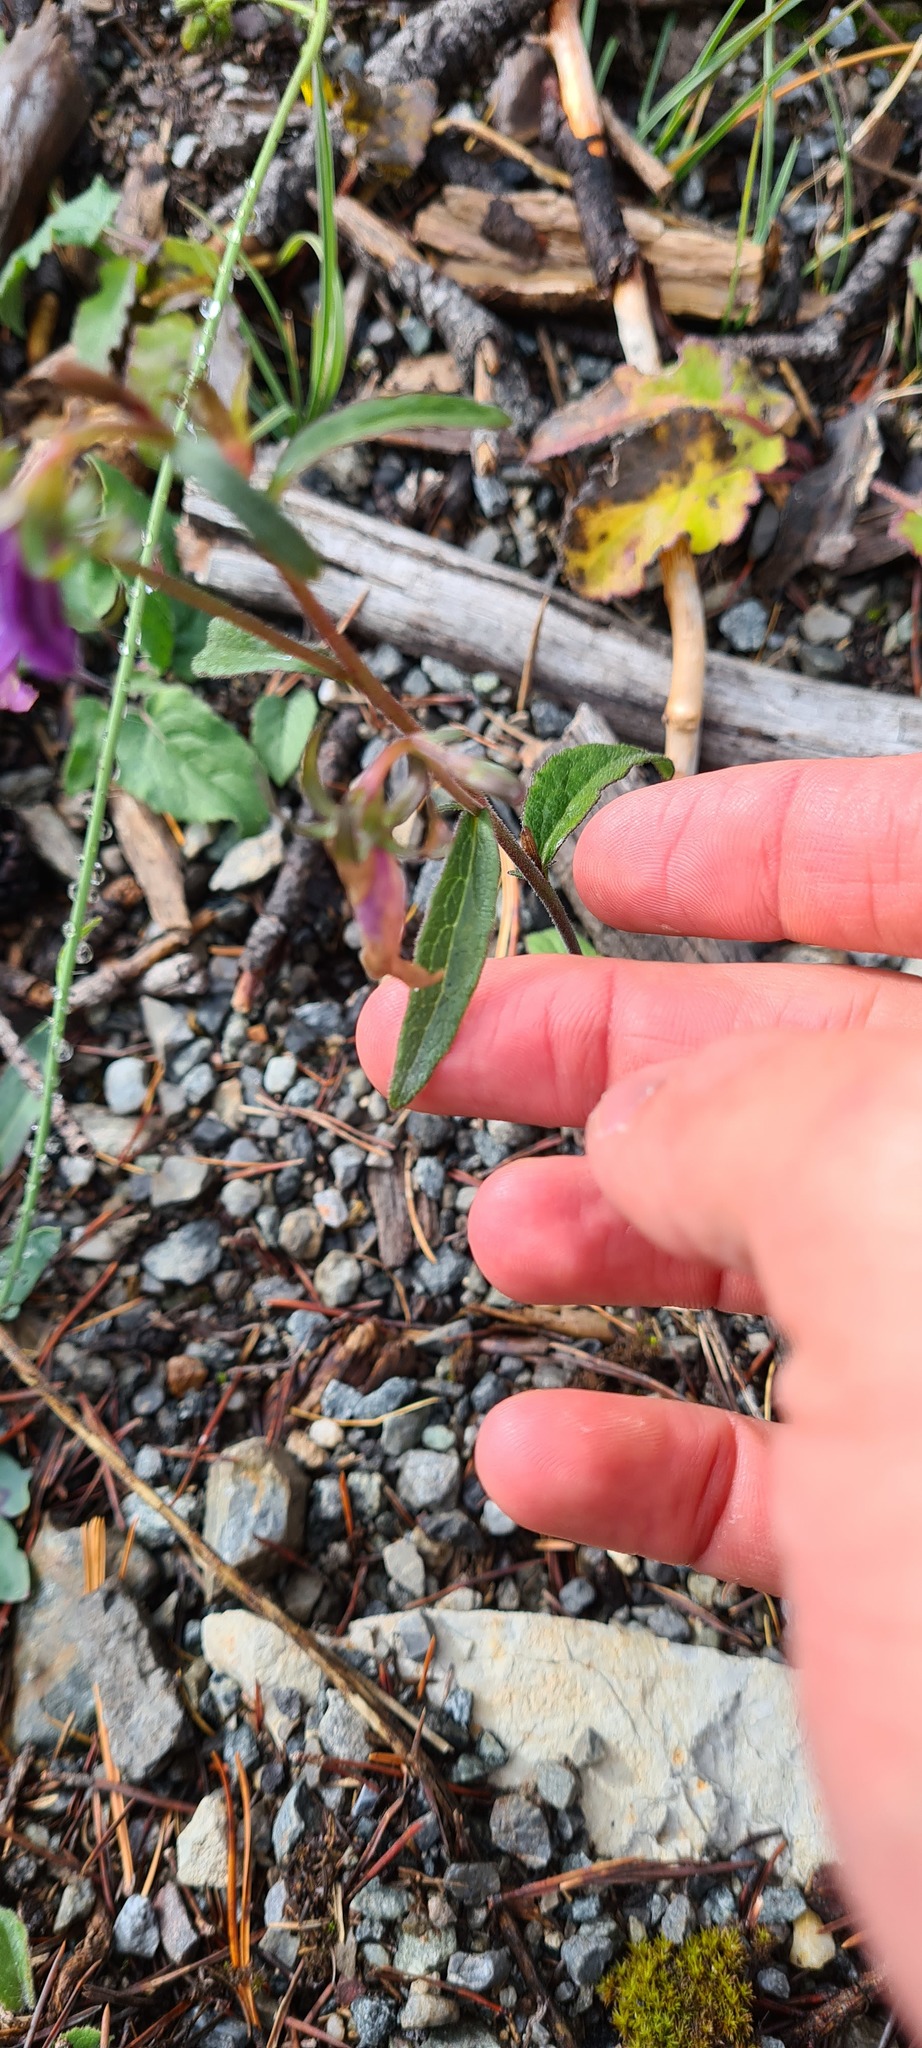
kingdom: Plantae
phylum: Tracheophyta
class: Magnoliopsida
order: Asterales
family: Campanulaceae
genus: Campanula
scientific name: Campanula rapunculoides
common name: Creeping bellflower
